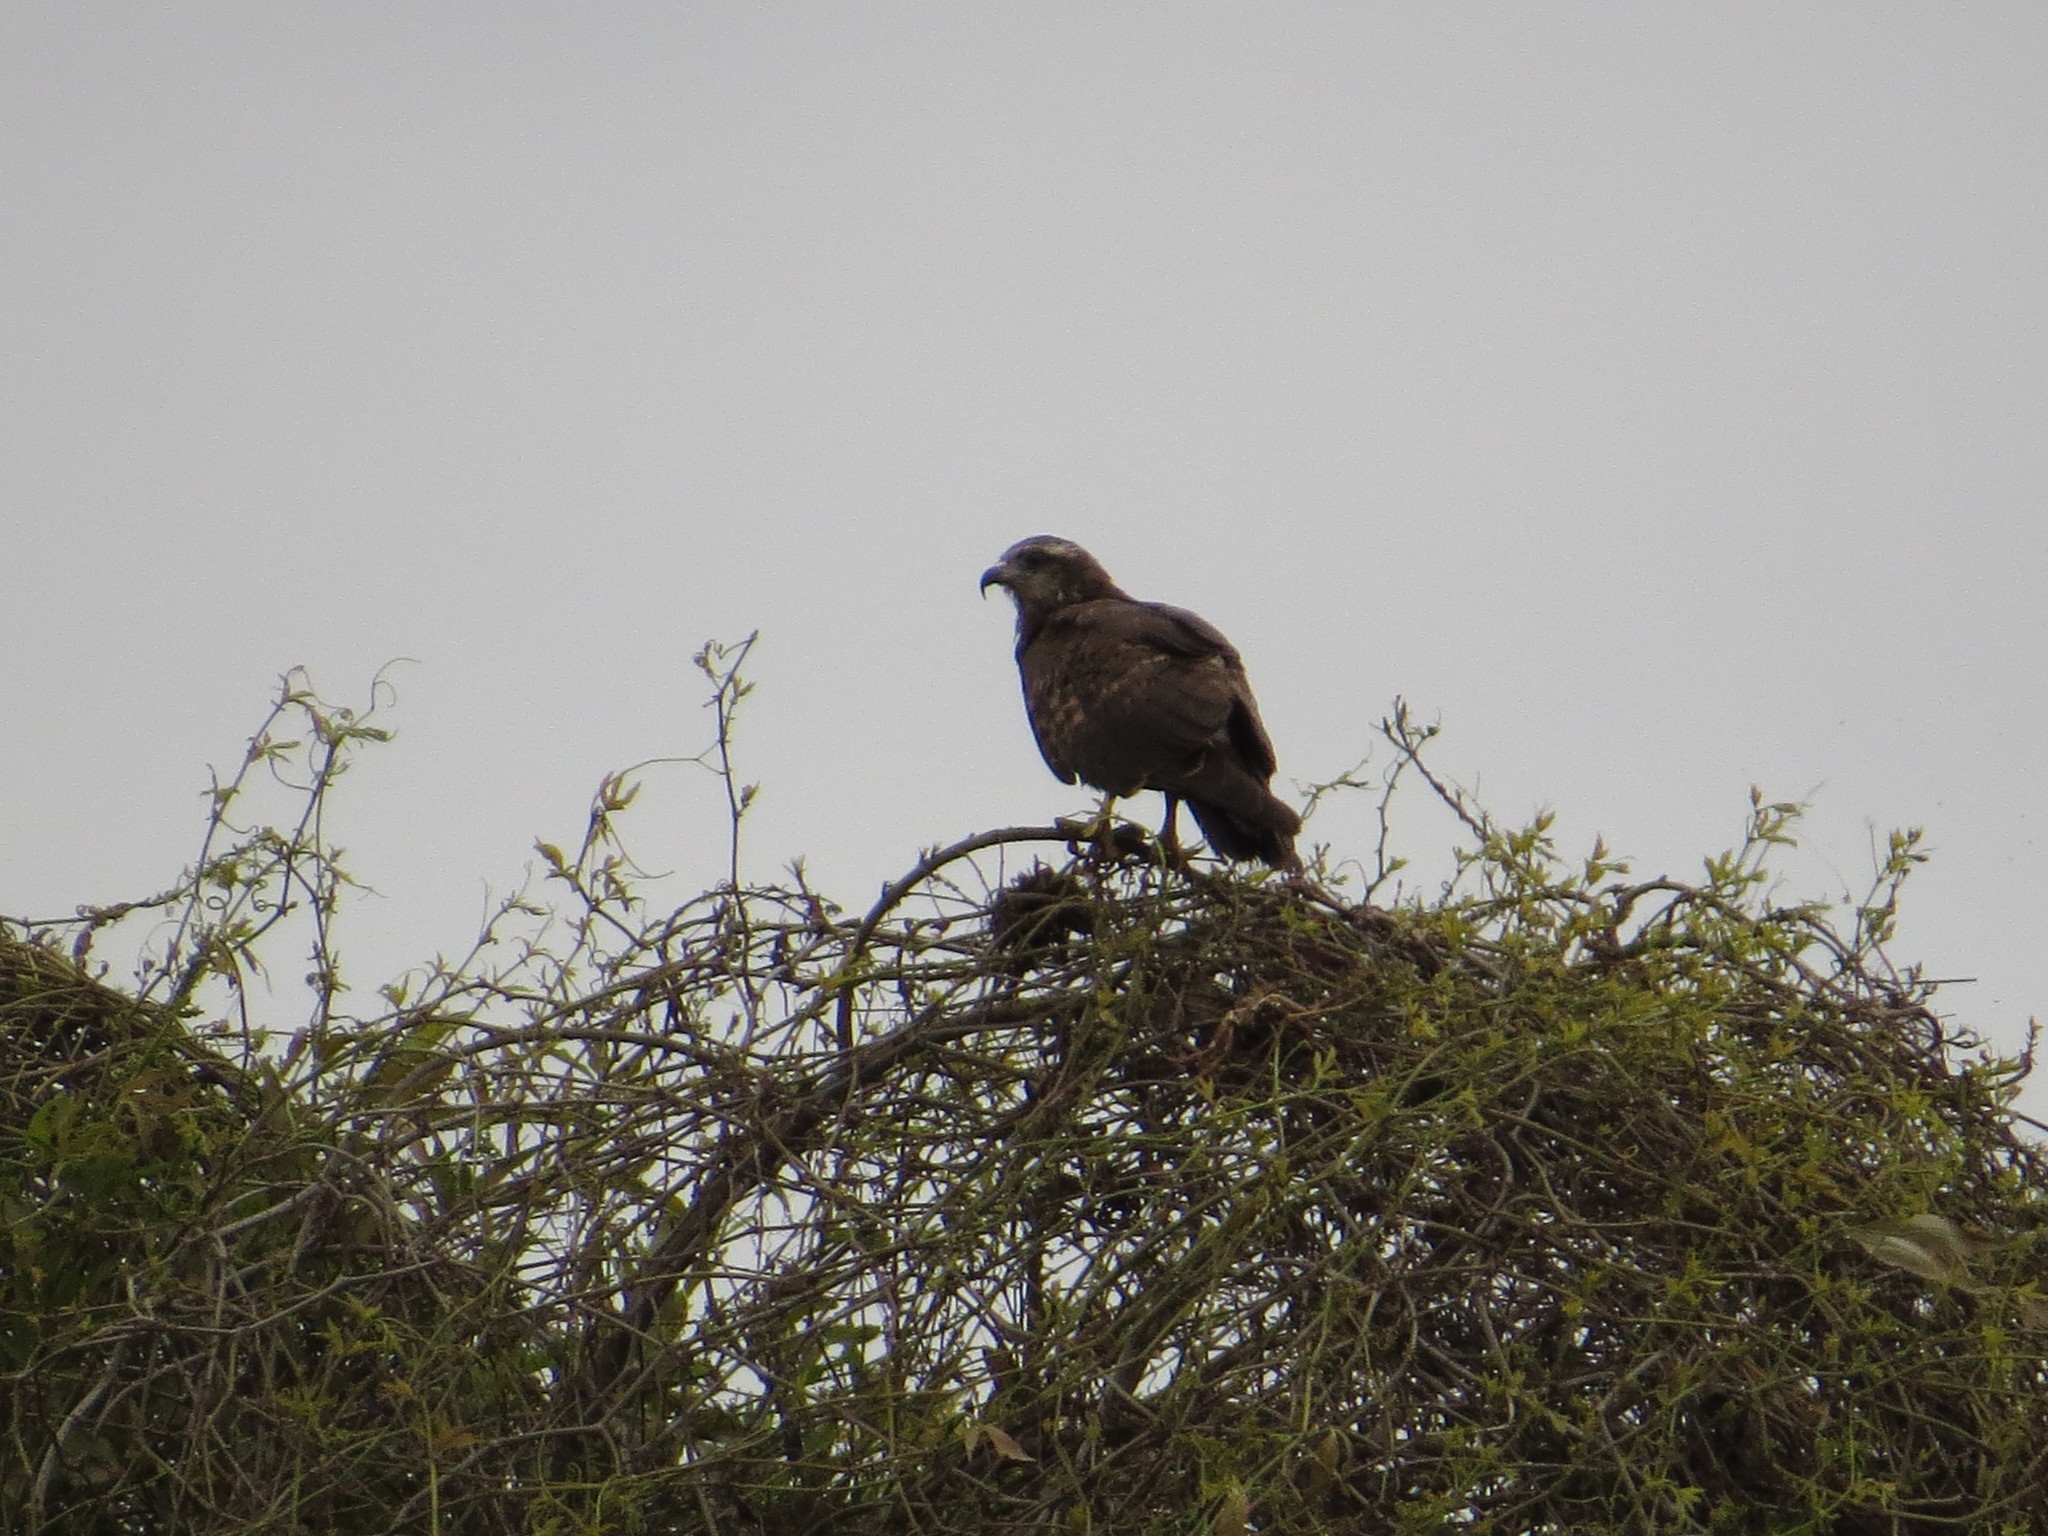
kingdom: Animalia
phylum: Chordata
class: Aves
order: Accipitriformes
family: Accipitridae
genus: Rostrhamus
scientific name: Rostrhamus sociabilis
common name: Snail kite
